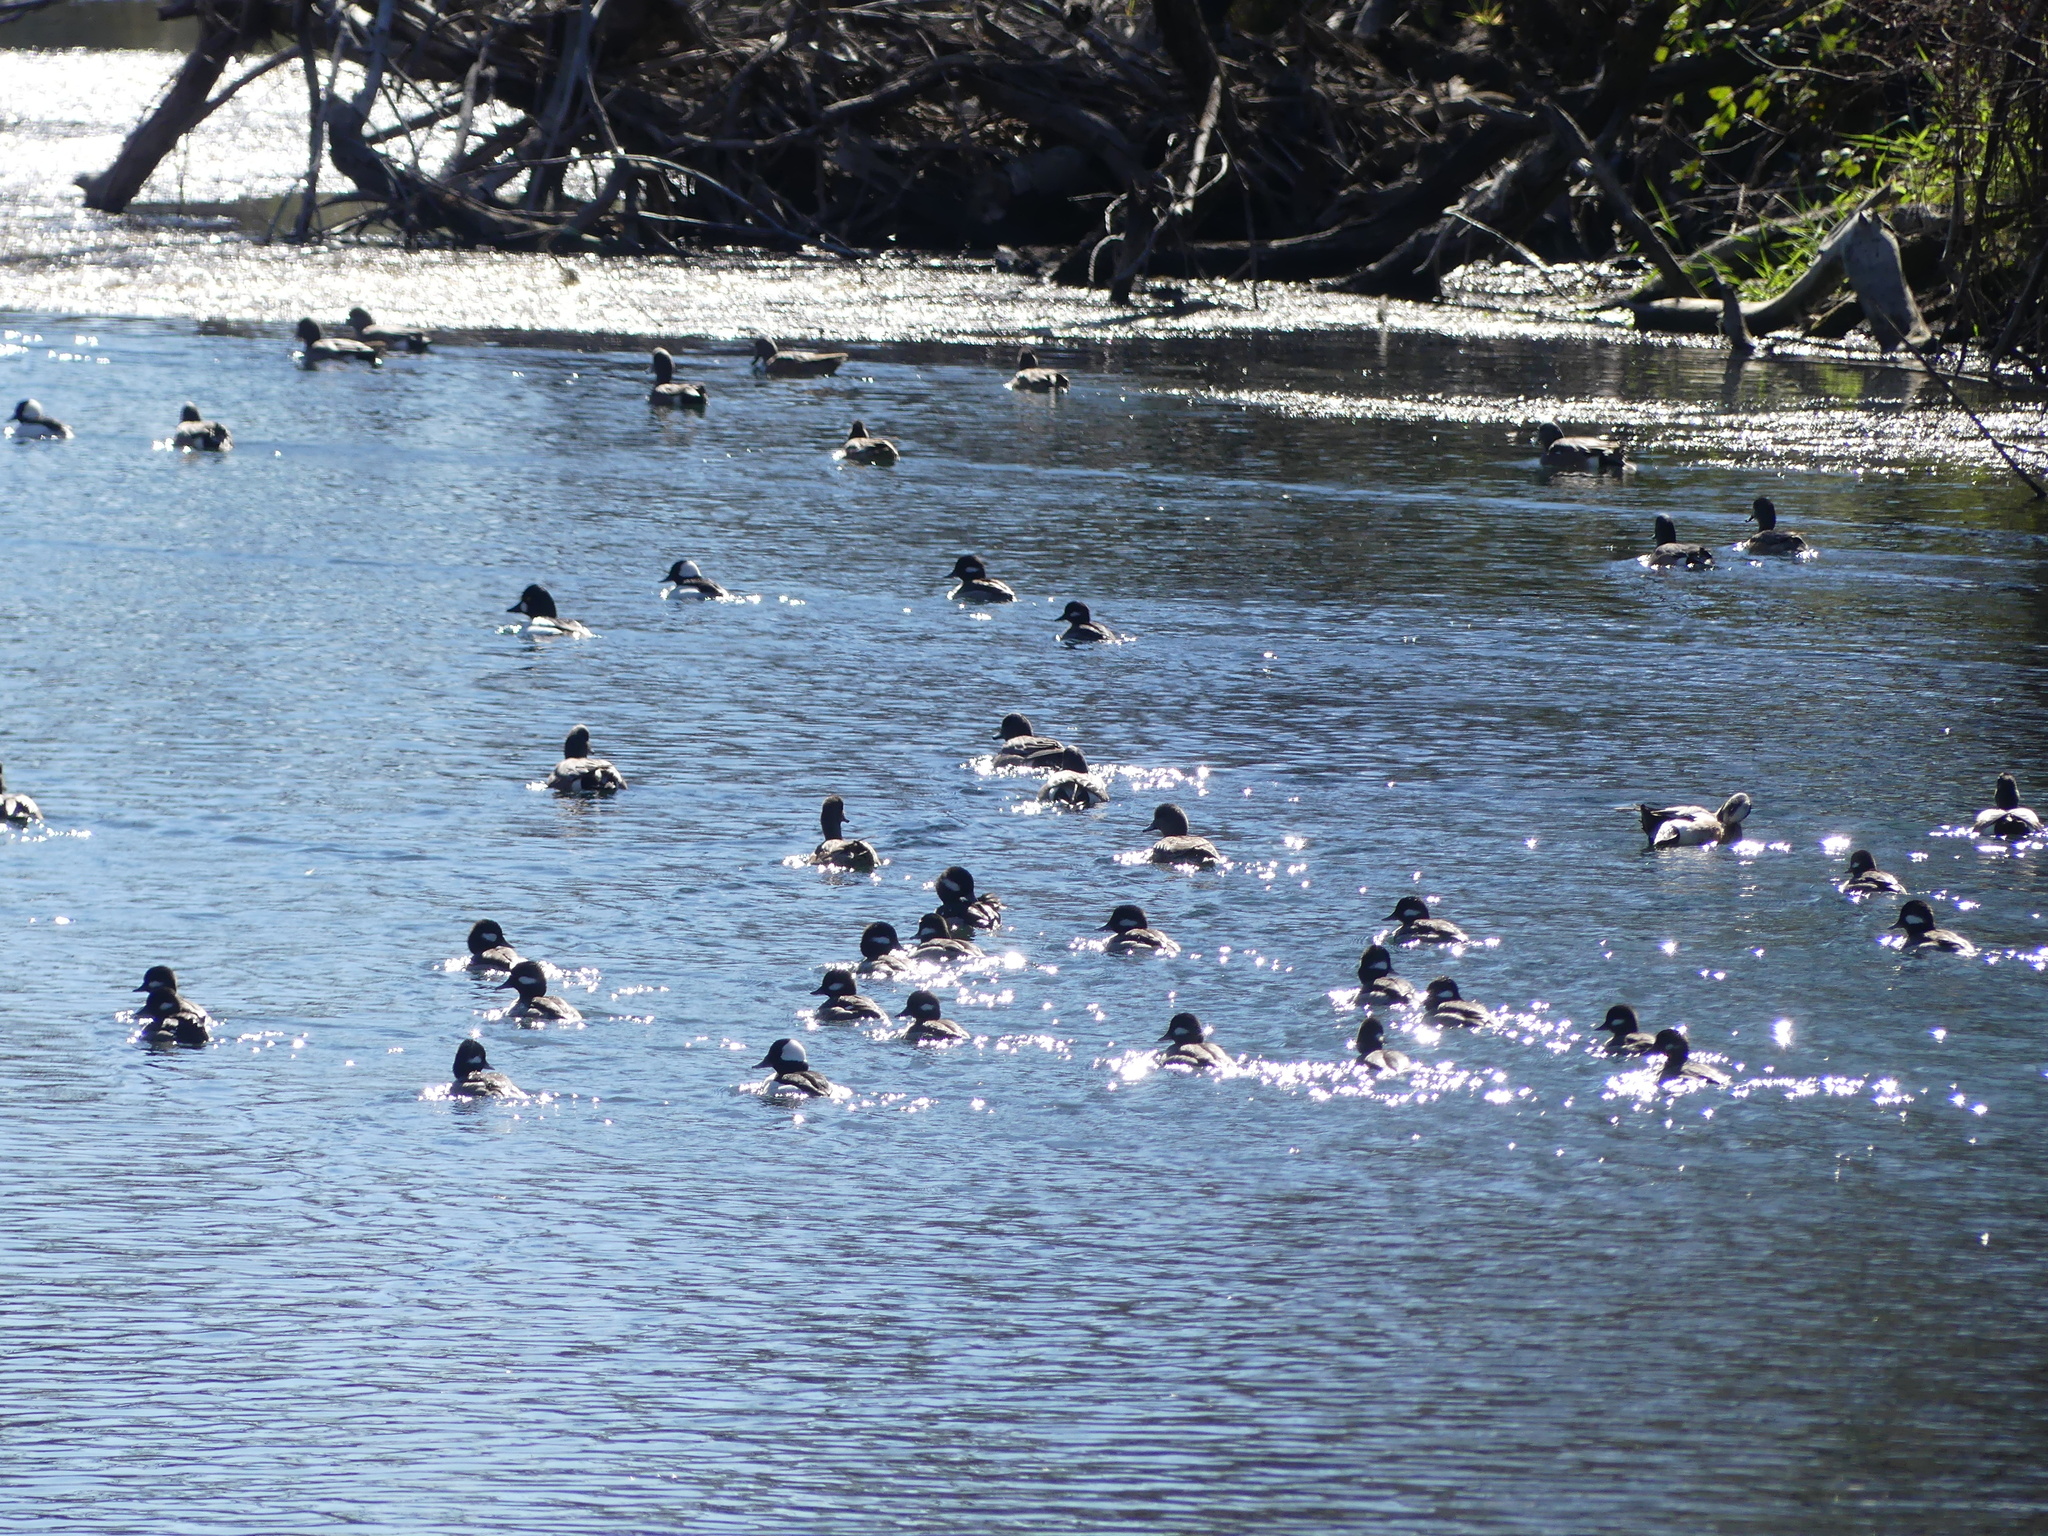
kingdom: Animalia
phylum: Chordata
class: Aves
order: Anseriformes
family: Anatidae
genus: Bucephala
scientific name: Bucephala albeola
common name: Bufflehead
